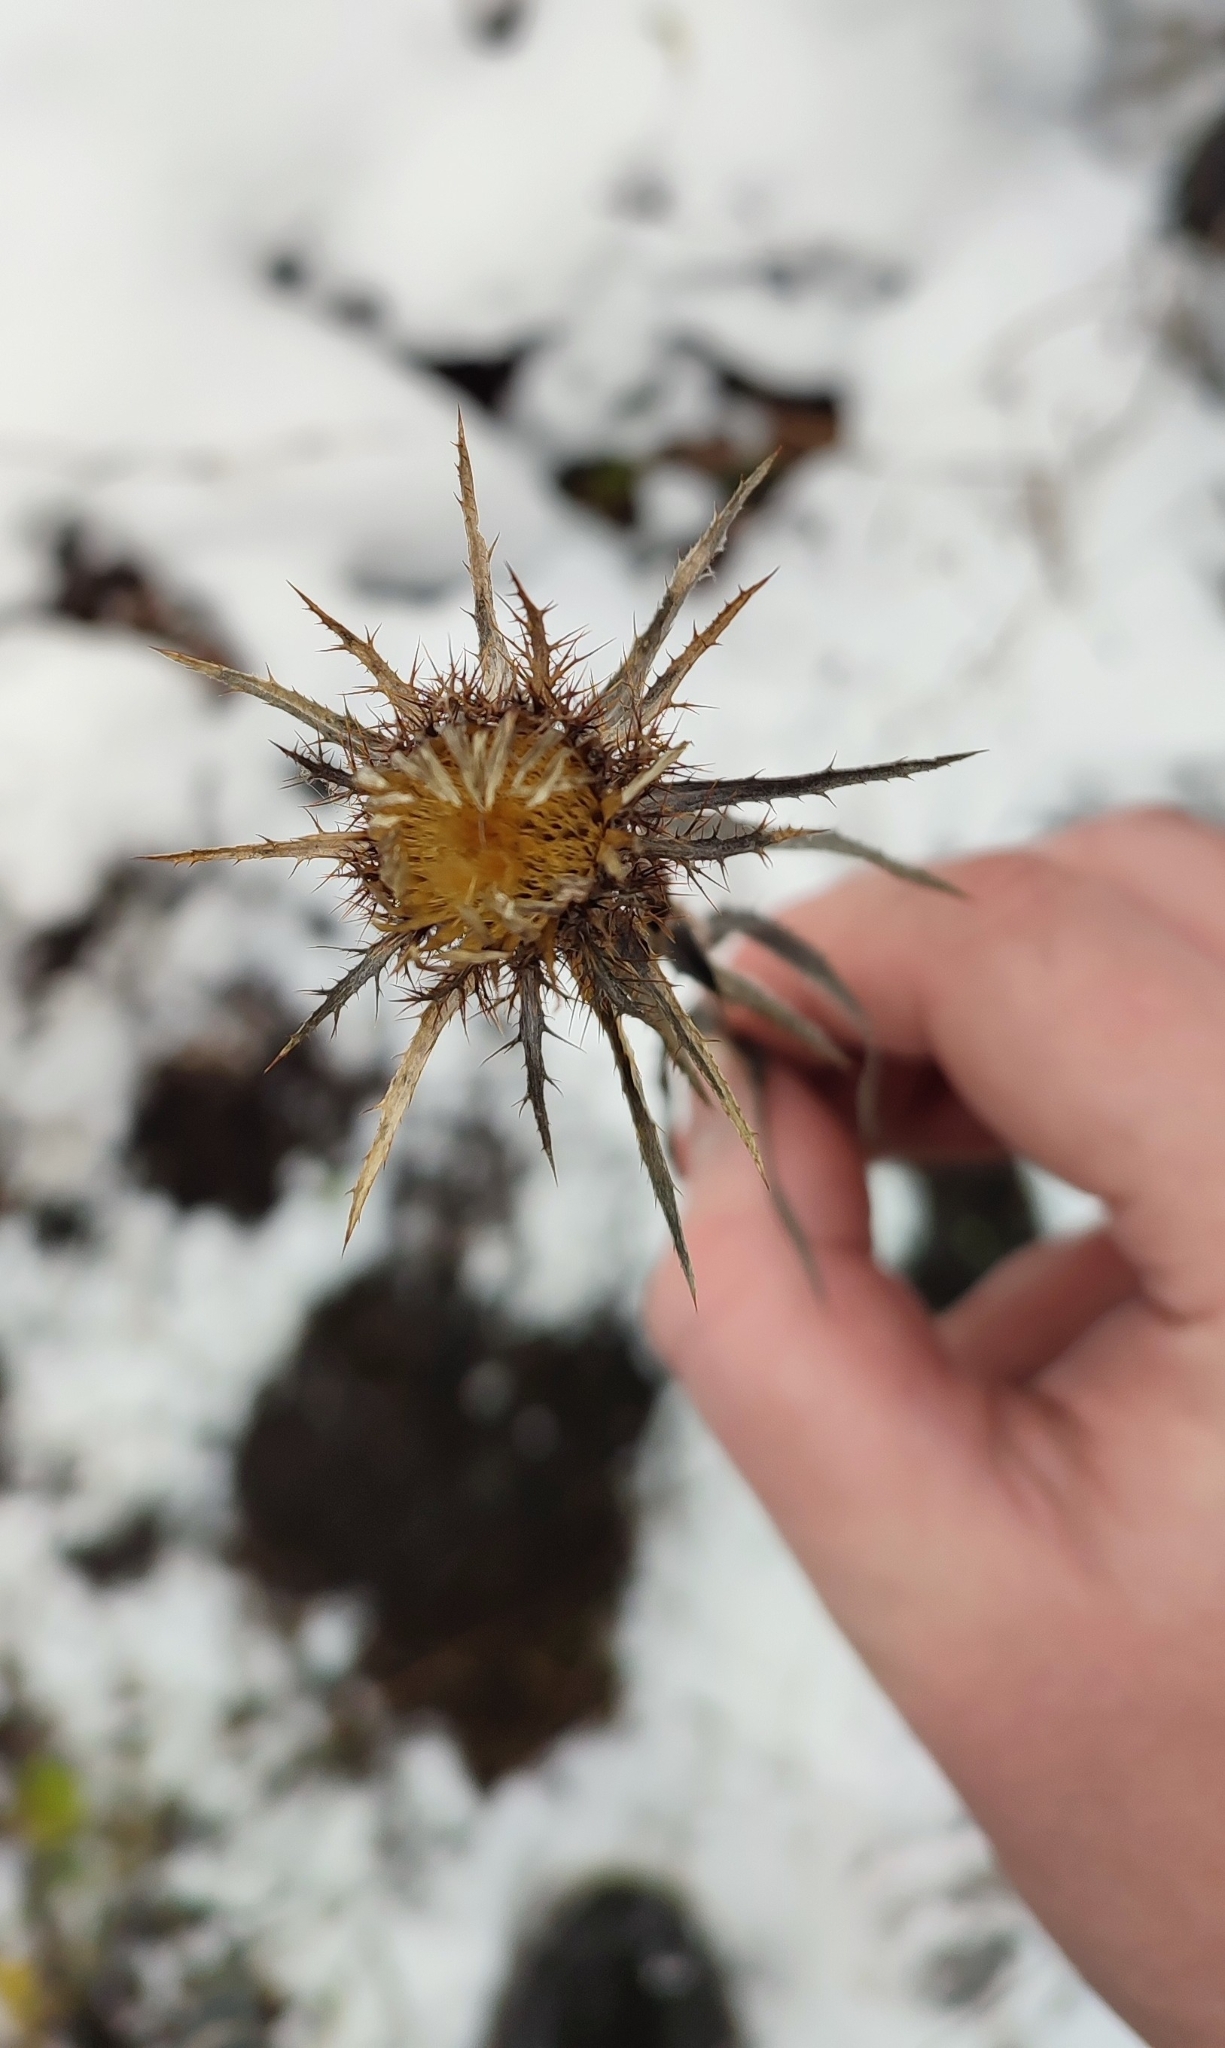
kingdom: Plantae
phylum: Tracheophyta
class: Magnoliopsida
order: Asterales
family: Asteraceae
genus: Carlina
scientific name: Carlina biebersteinii
